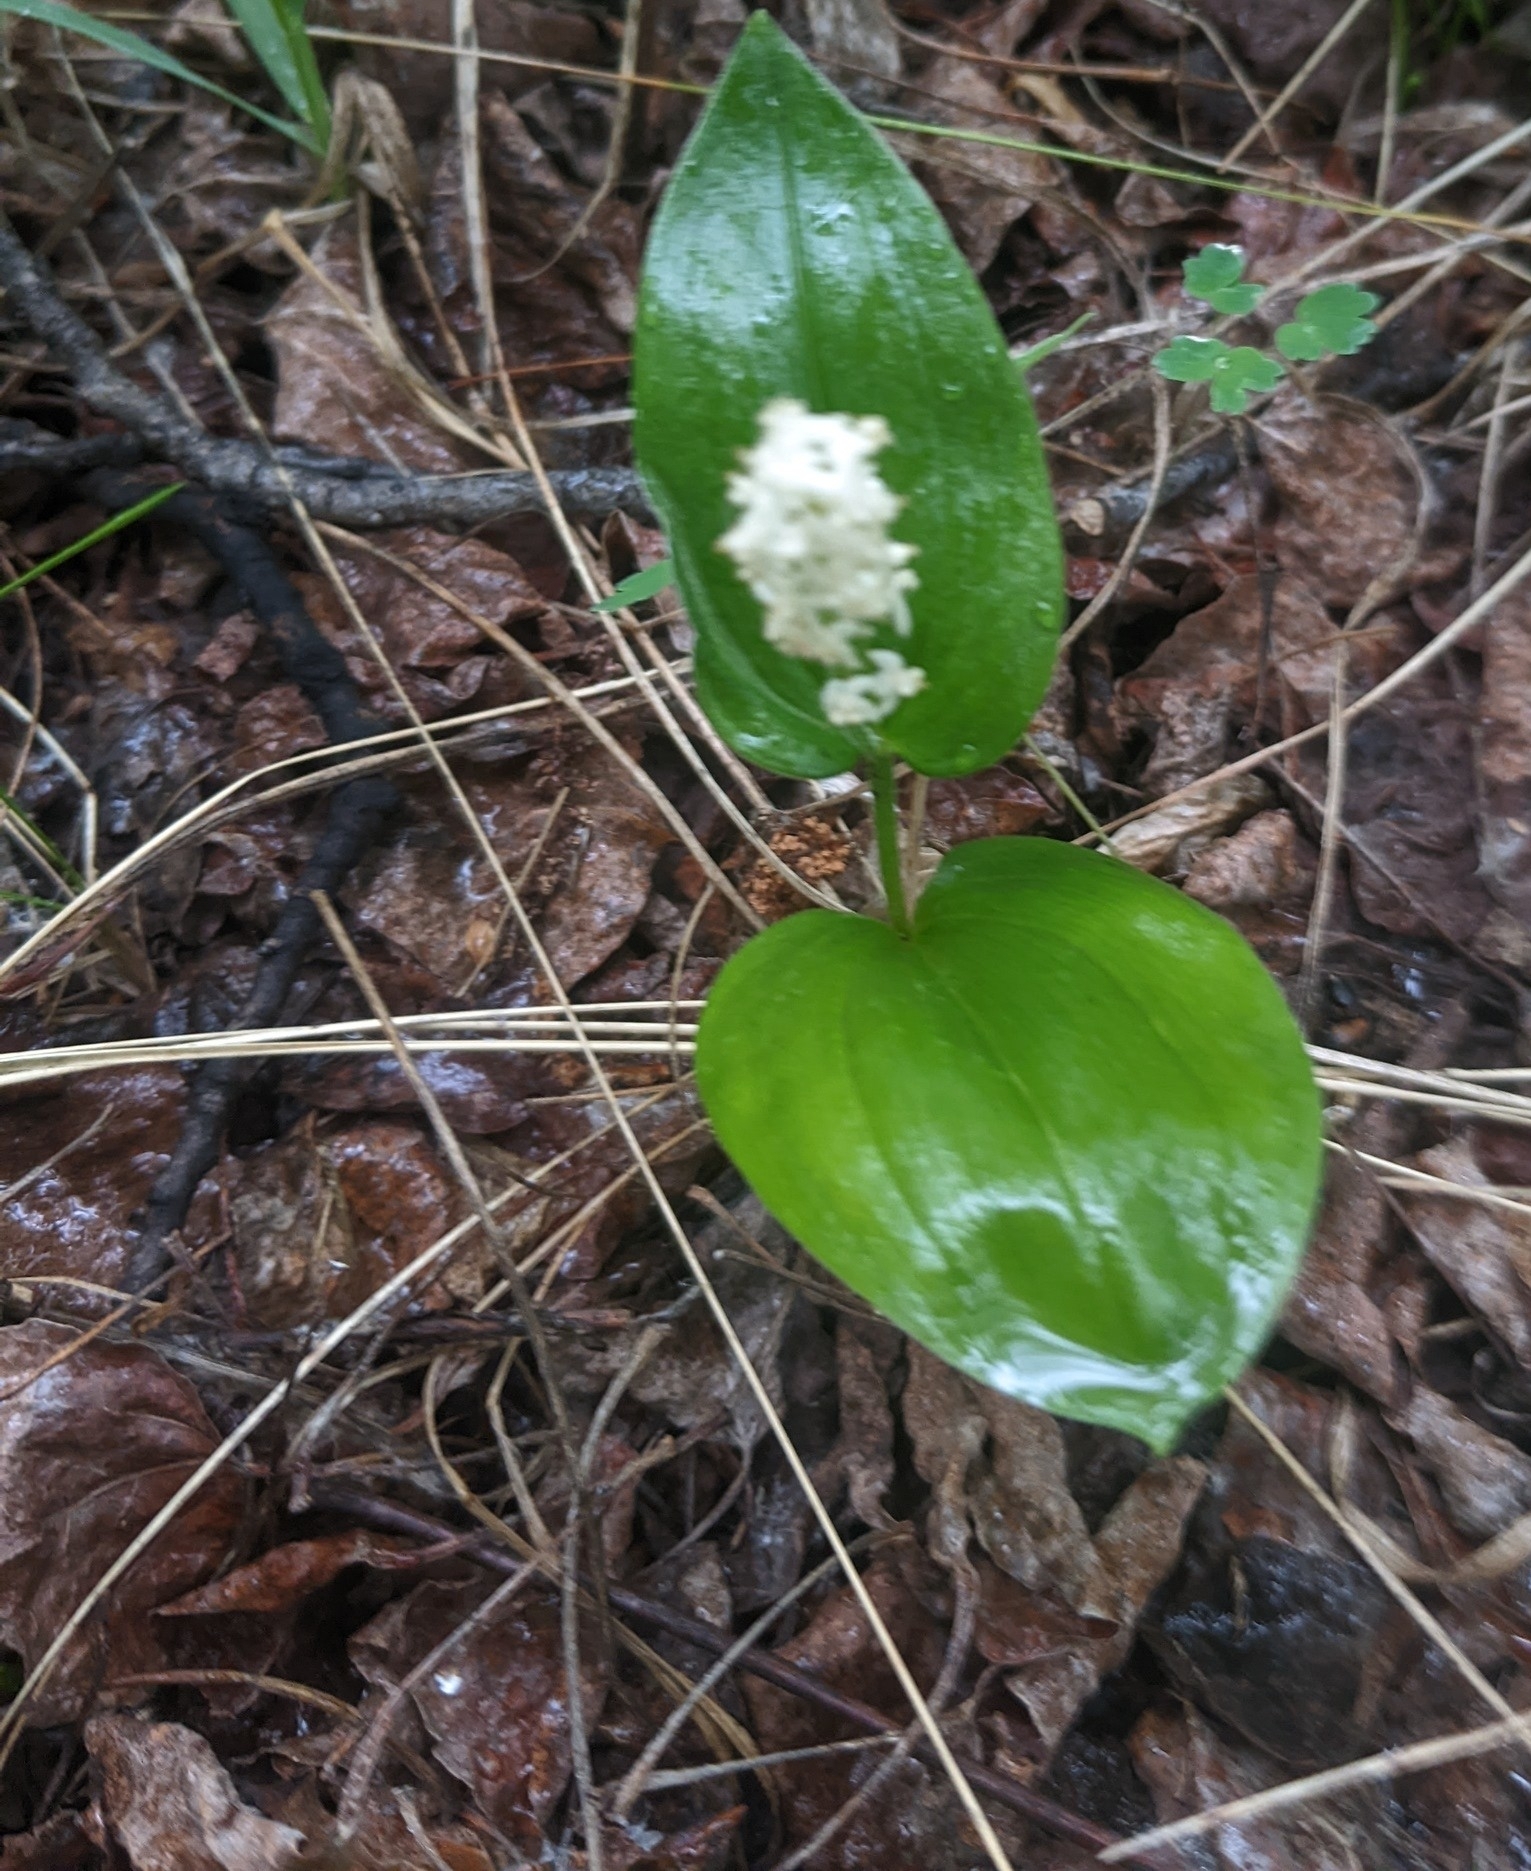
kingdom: Plantae
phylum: Tracheophyta
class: Liliopsida
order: Asparagales
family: Asparagaceae
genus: Maianthemum
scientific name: Maianthemum canadense
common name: False lily-of-the-valley
